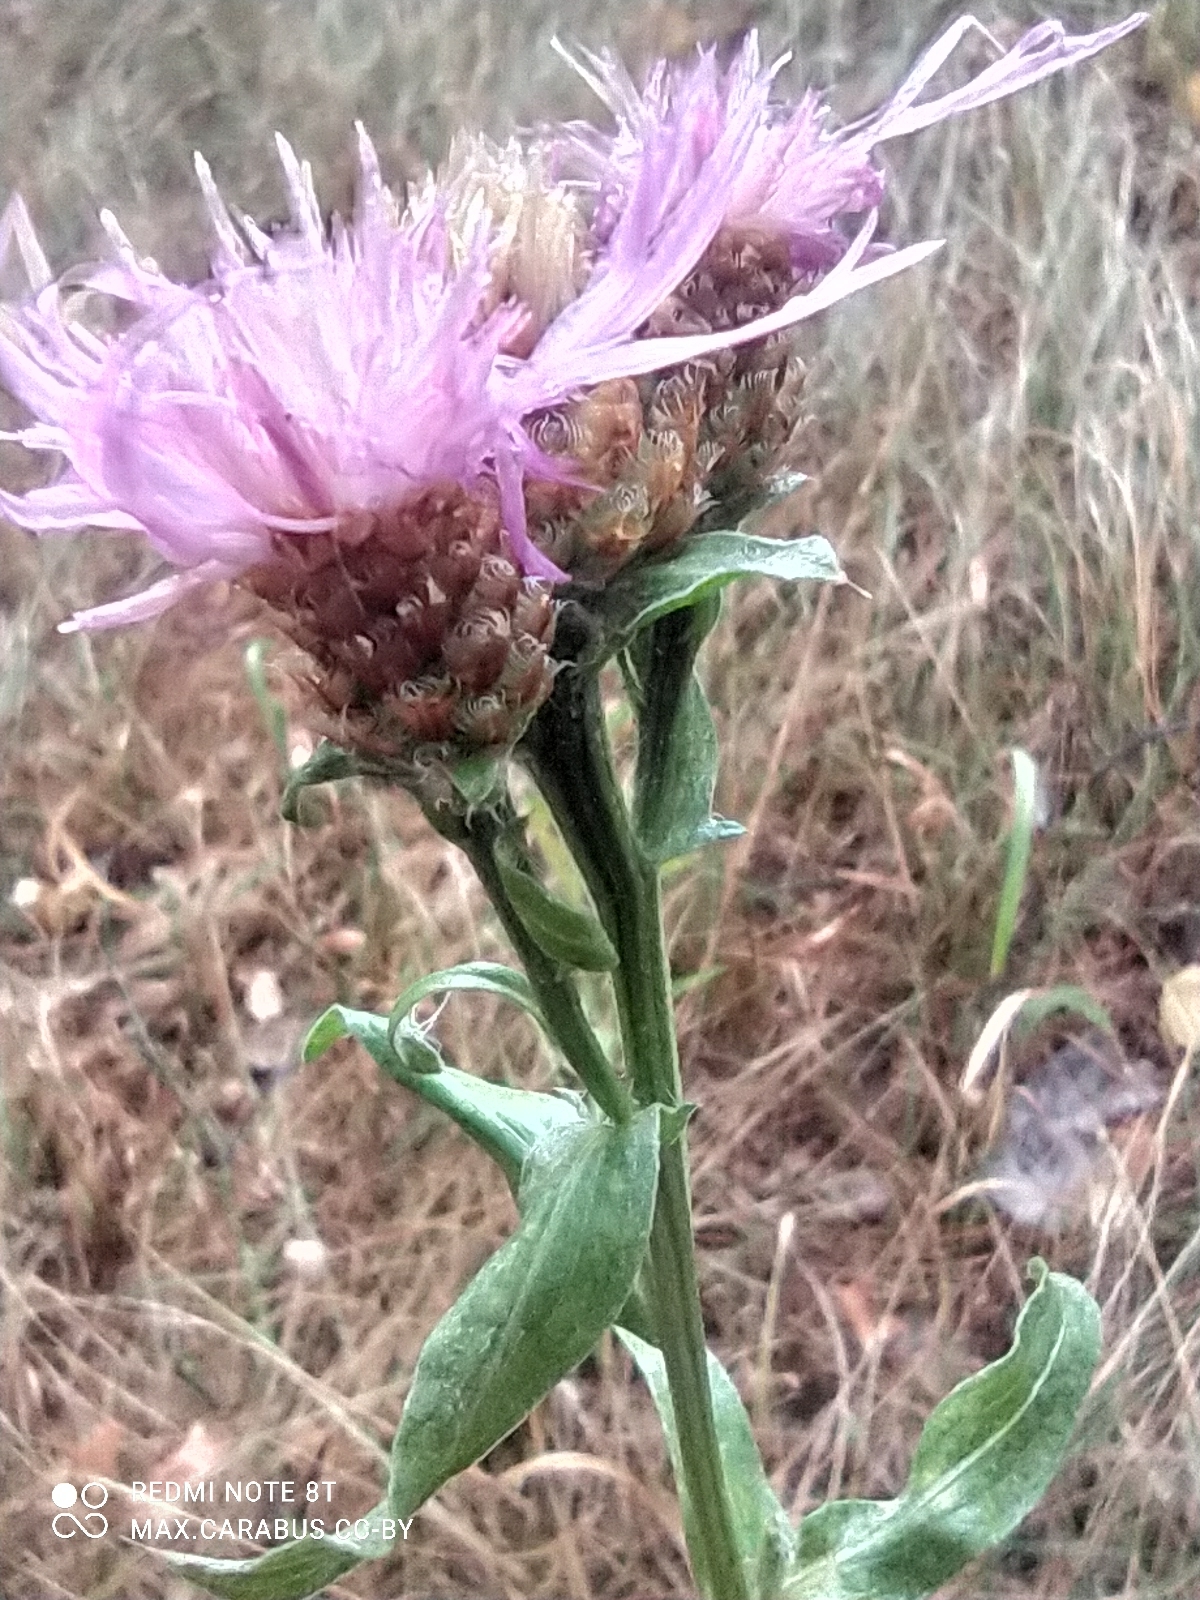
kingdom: Plantae
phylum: Tracheophyta
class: Magnoliopsida
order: Asterales
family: Asteraceae
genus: Centaurea
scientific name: Centaurea jacea
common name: Brown knapweed
